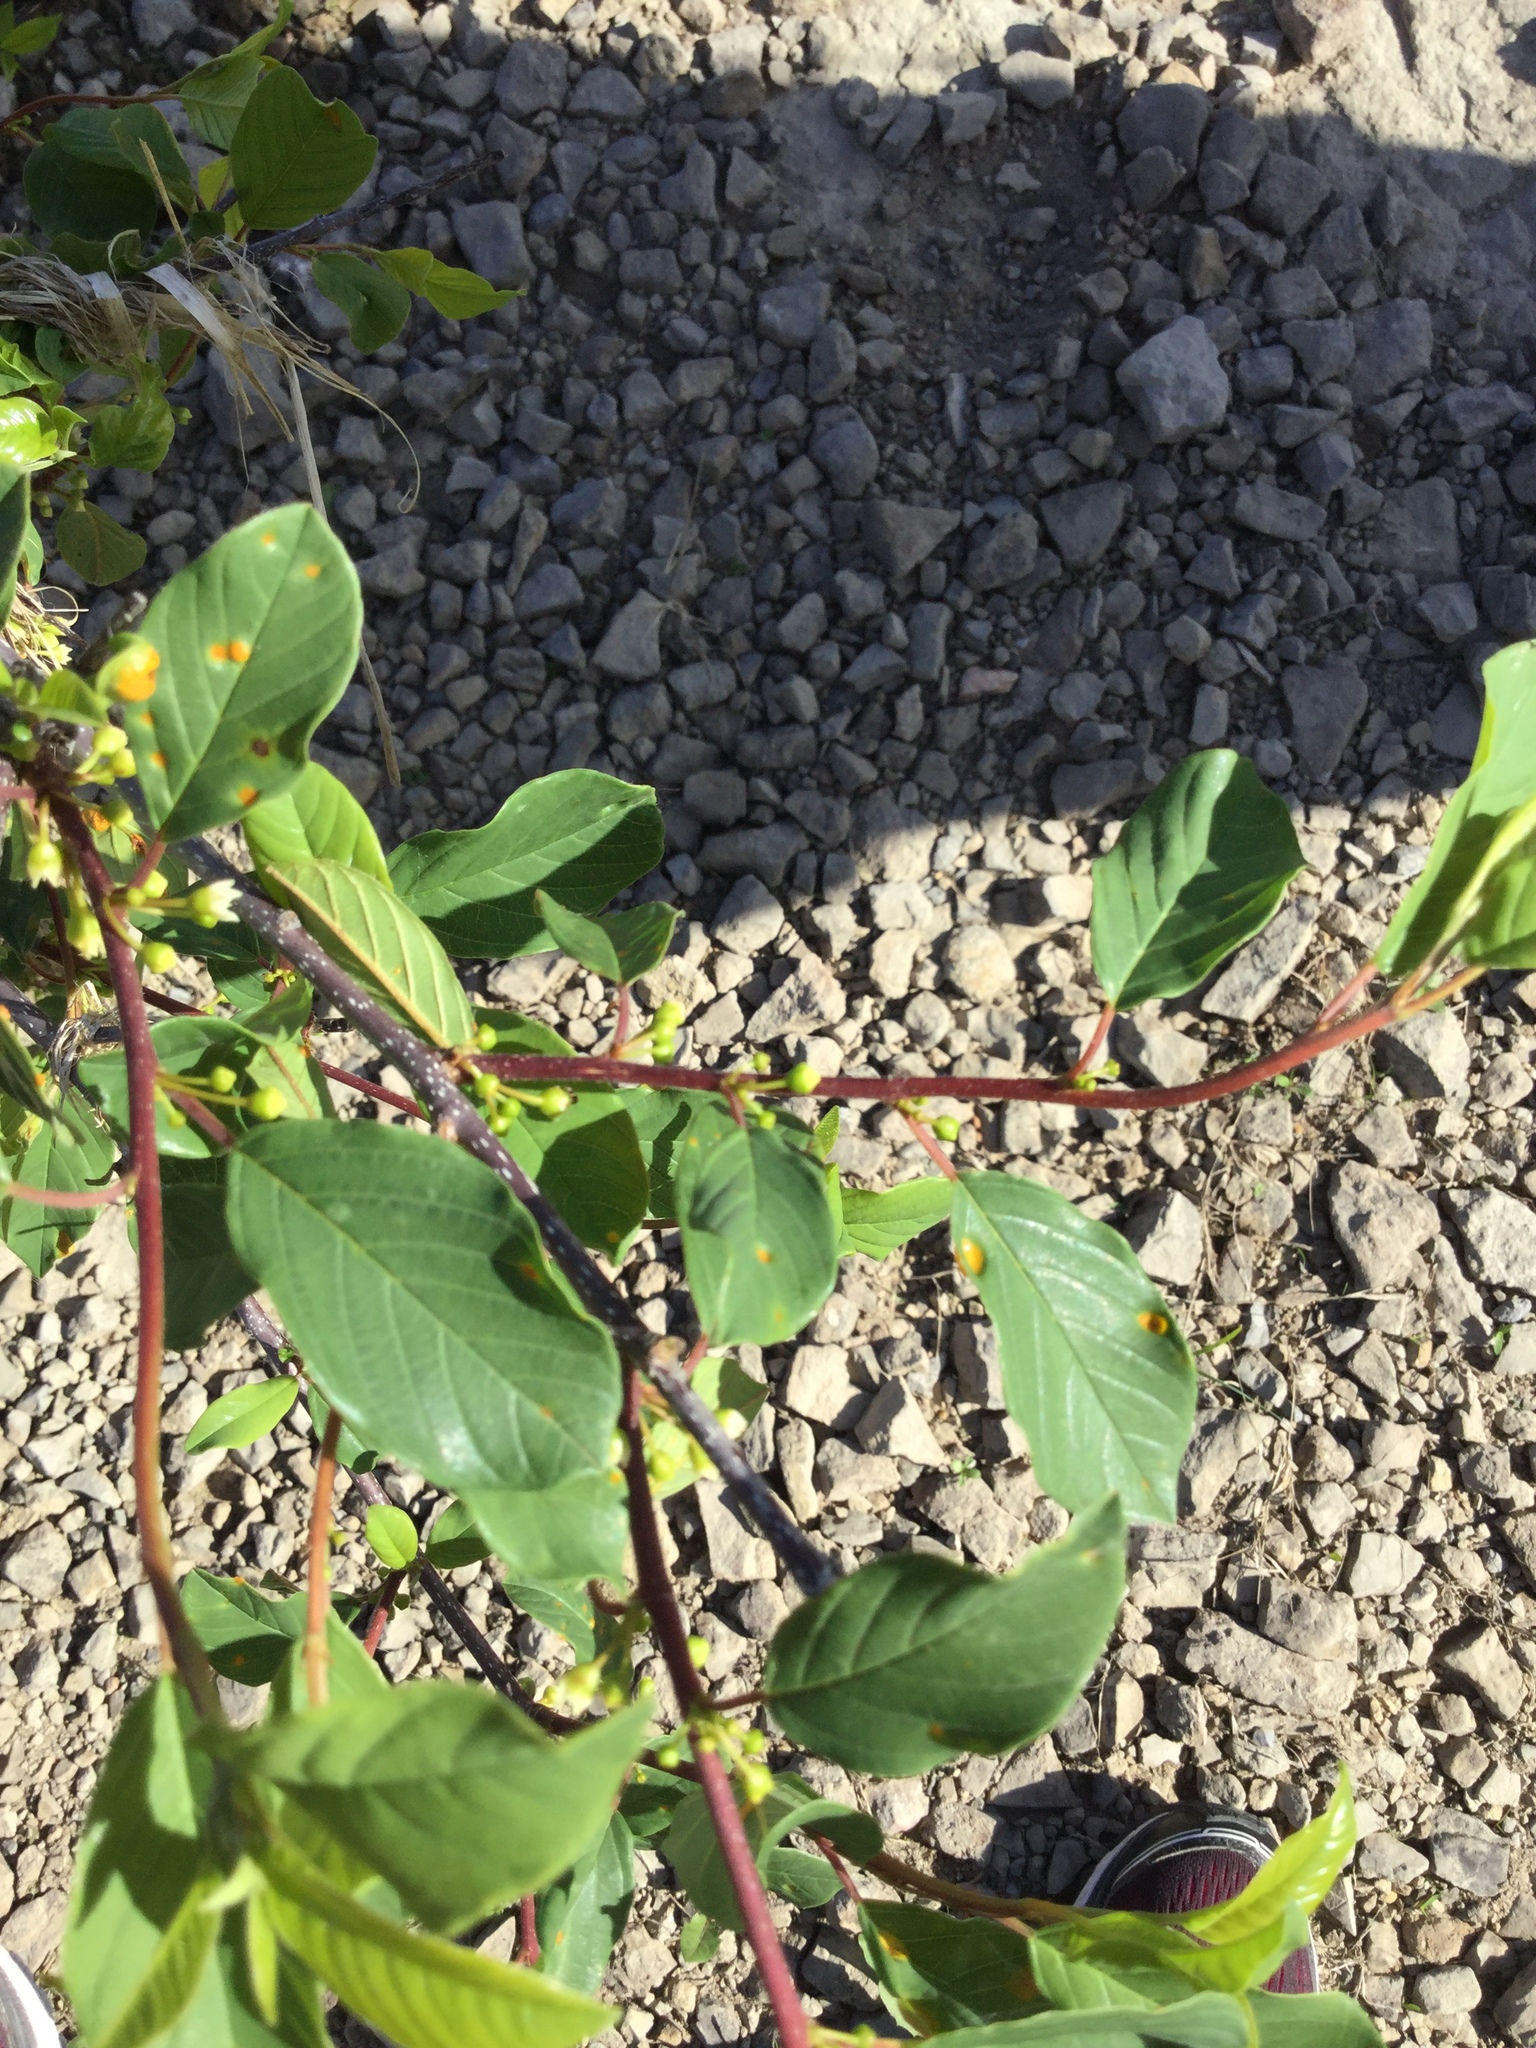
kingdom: Plantae
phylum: Tracheophyta
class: Magnoliopsida
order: Rosales
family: Rhamnaceae
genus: Frangula
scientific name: Frangula alnus
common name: Alder buckthorn
